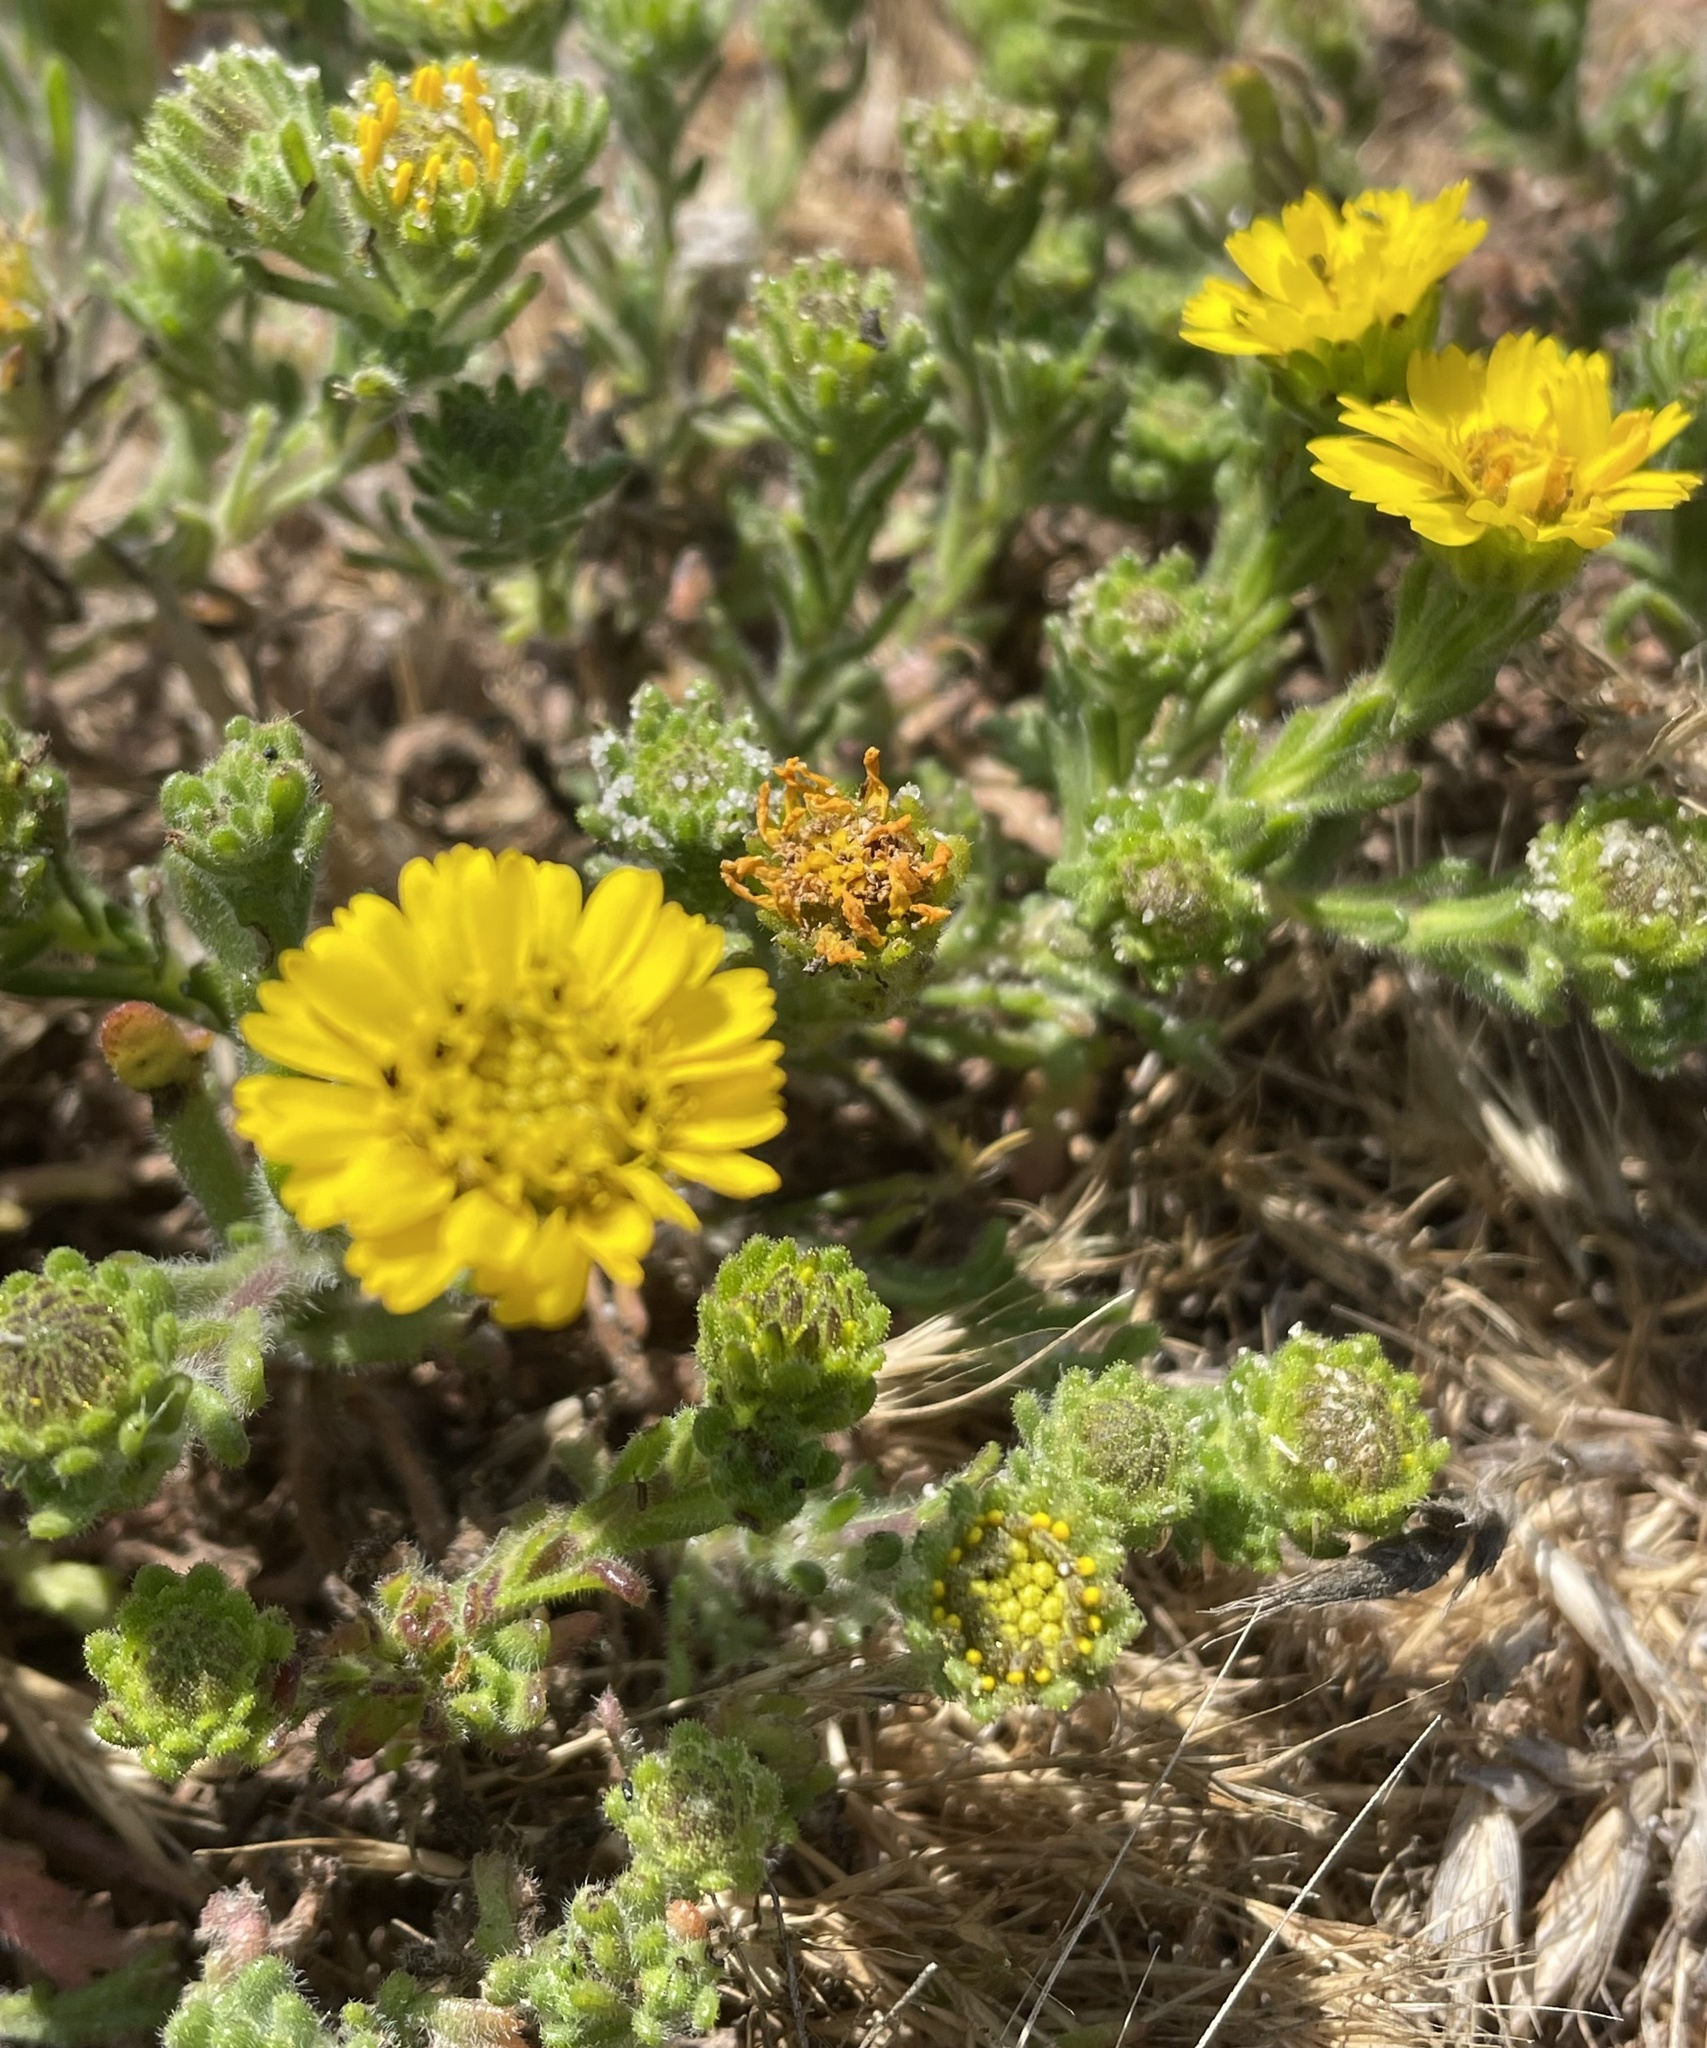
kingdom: Plantae
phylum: Tracheophyta
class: Magnoliopsida
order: Asterales
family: Asteraceae
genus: Deinandra
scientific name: Deinandra corymbosa
